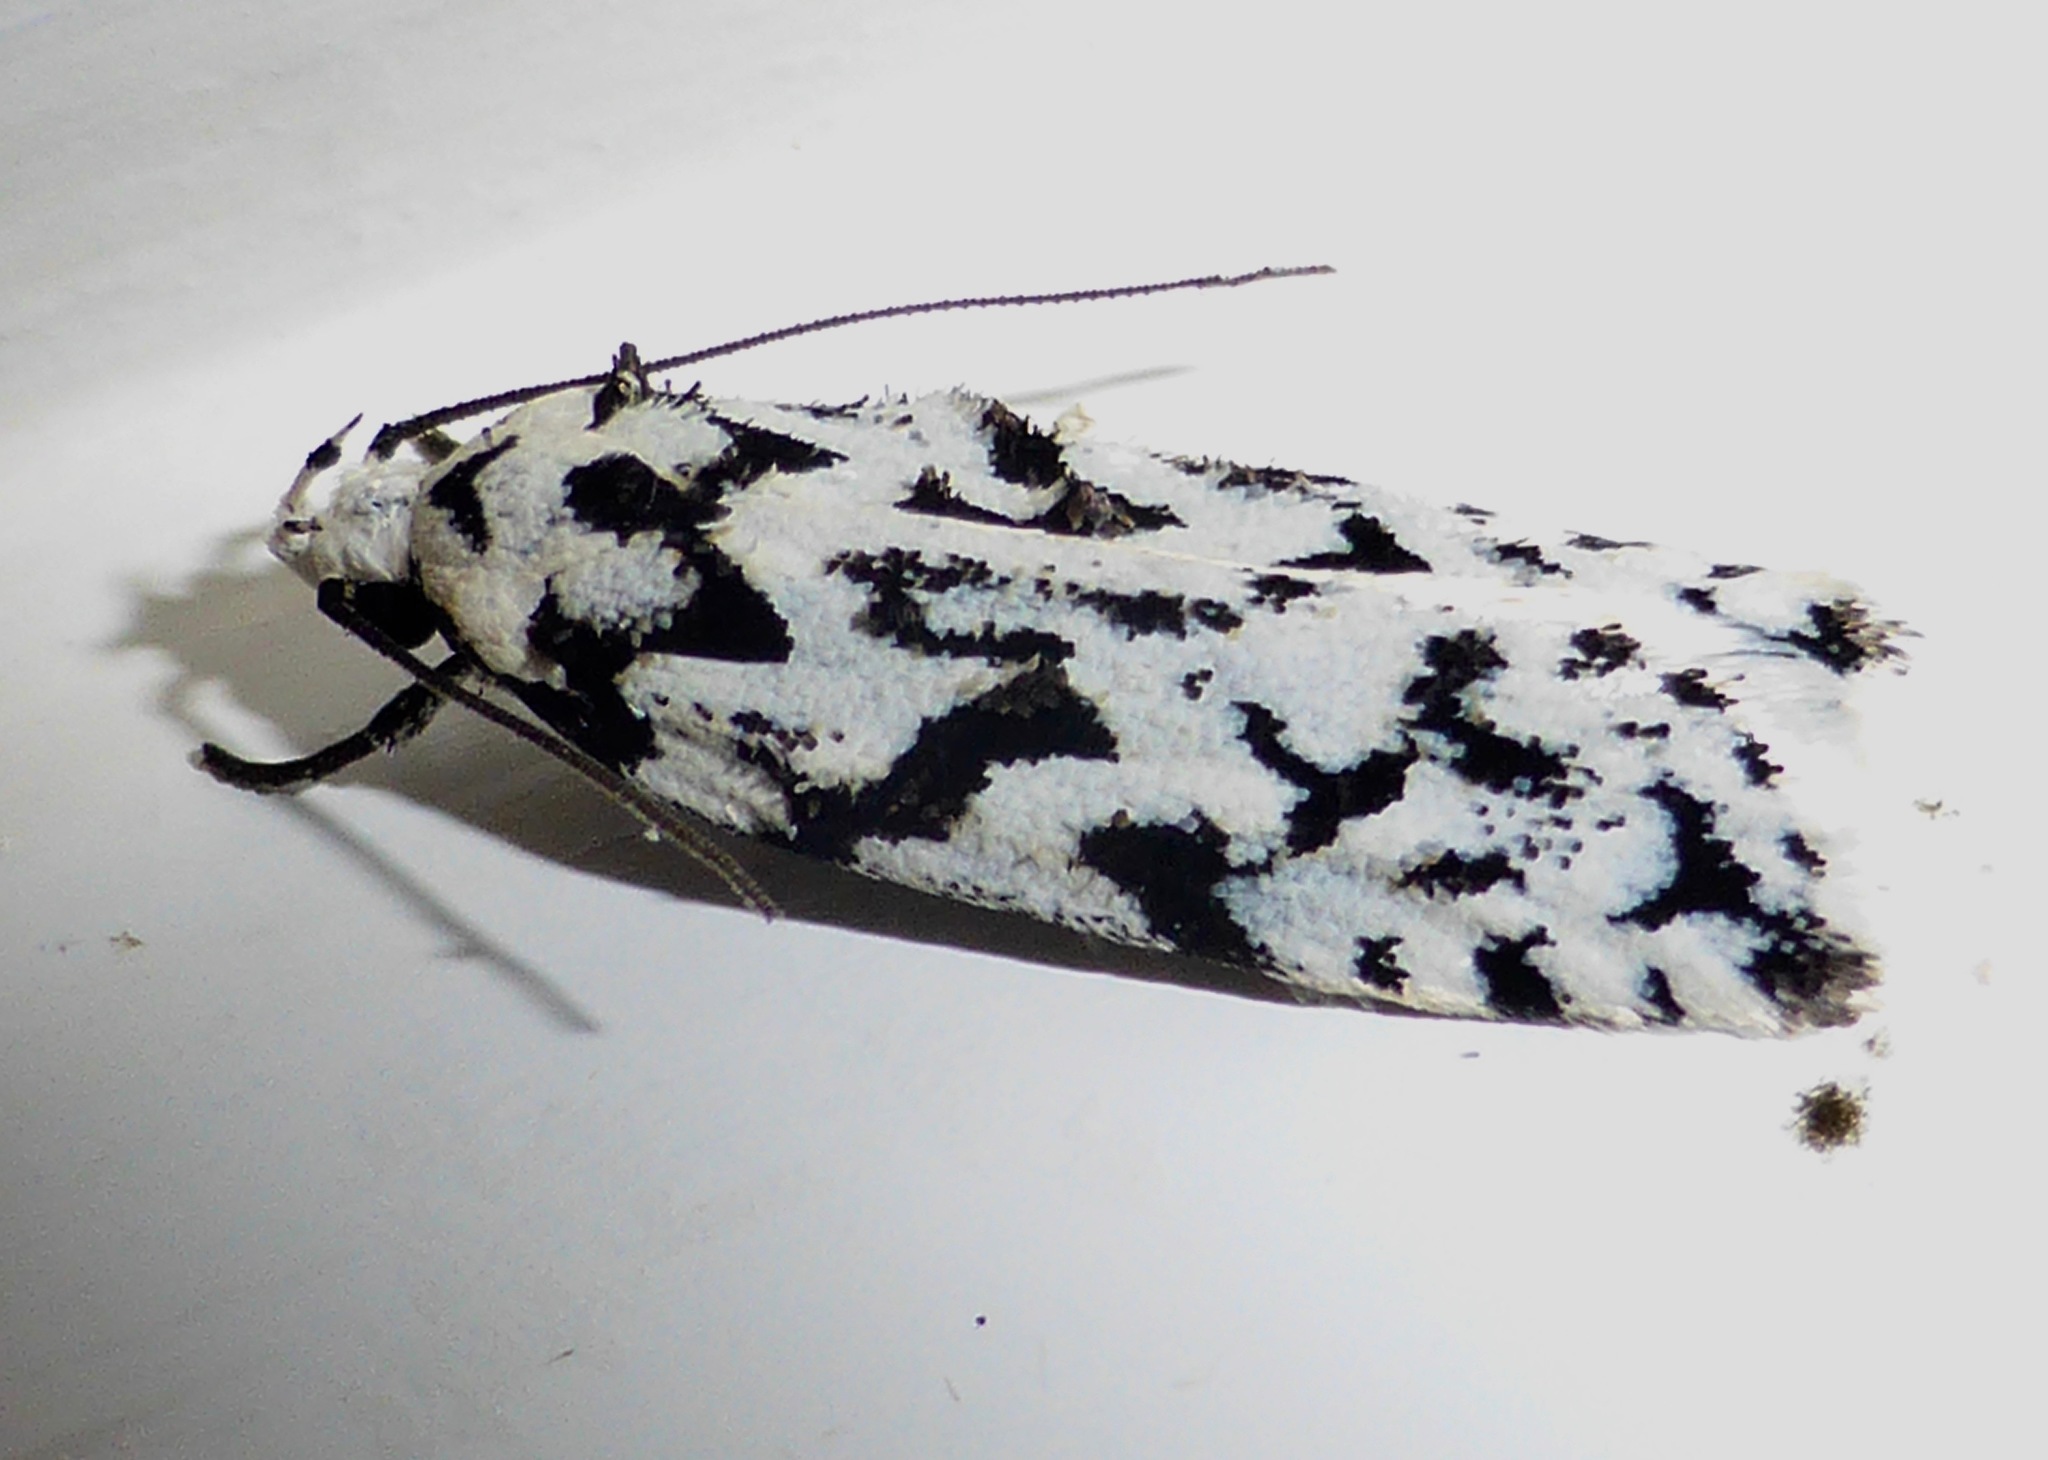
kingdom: Animalia
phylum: Arthropoda
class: Insecta
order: Lepidoptera
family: Oecophoridae
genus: Izatha
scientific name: Izatha katadiktya
